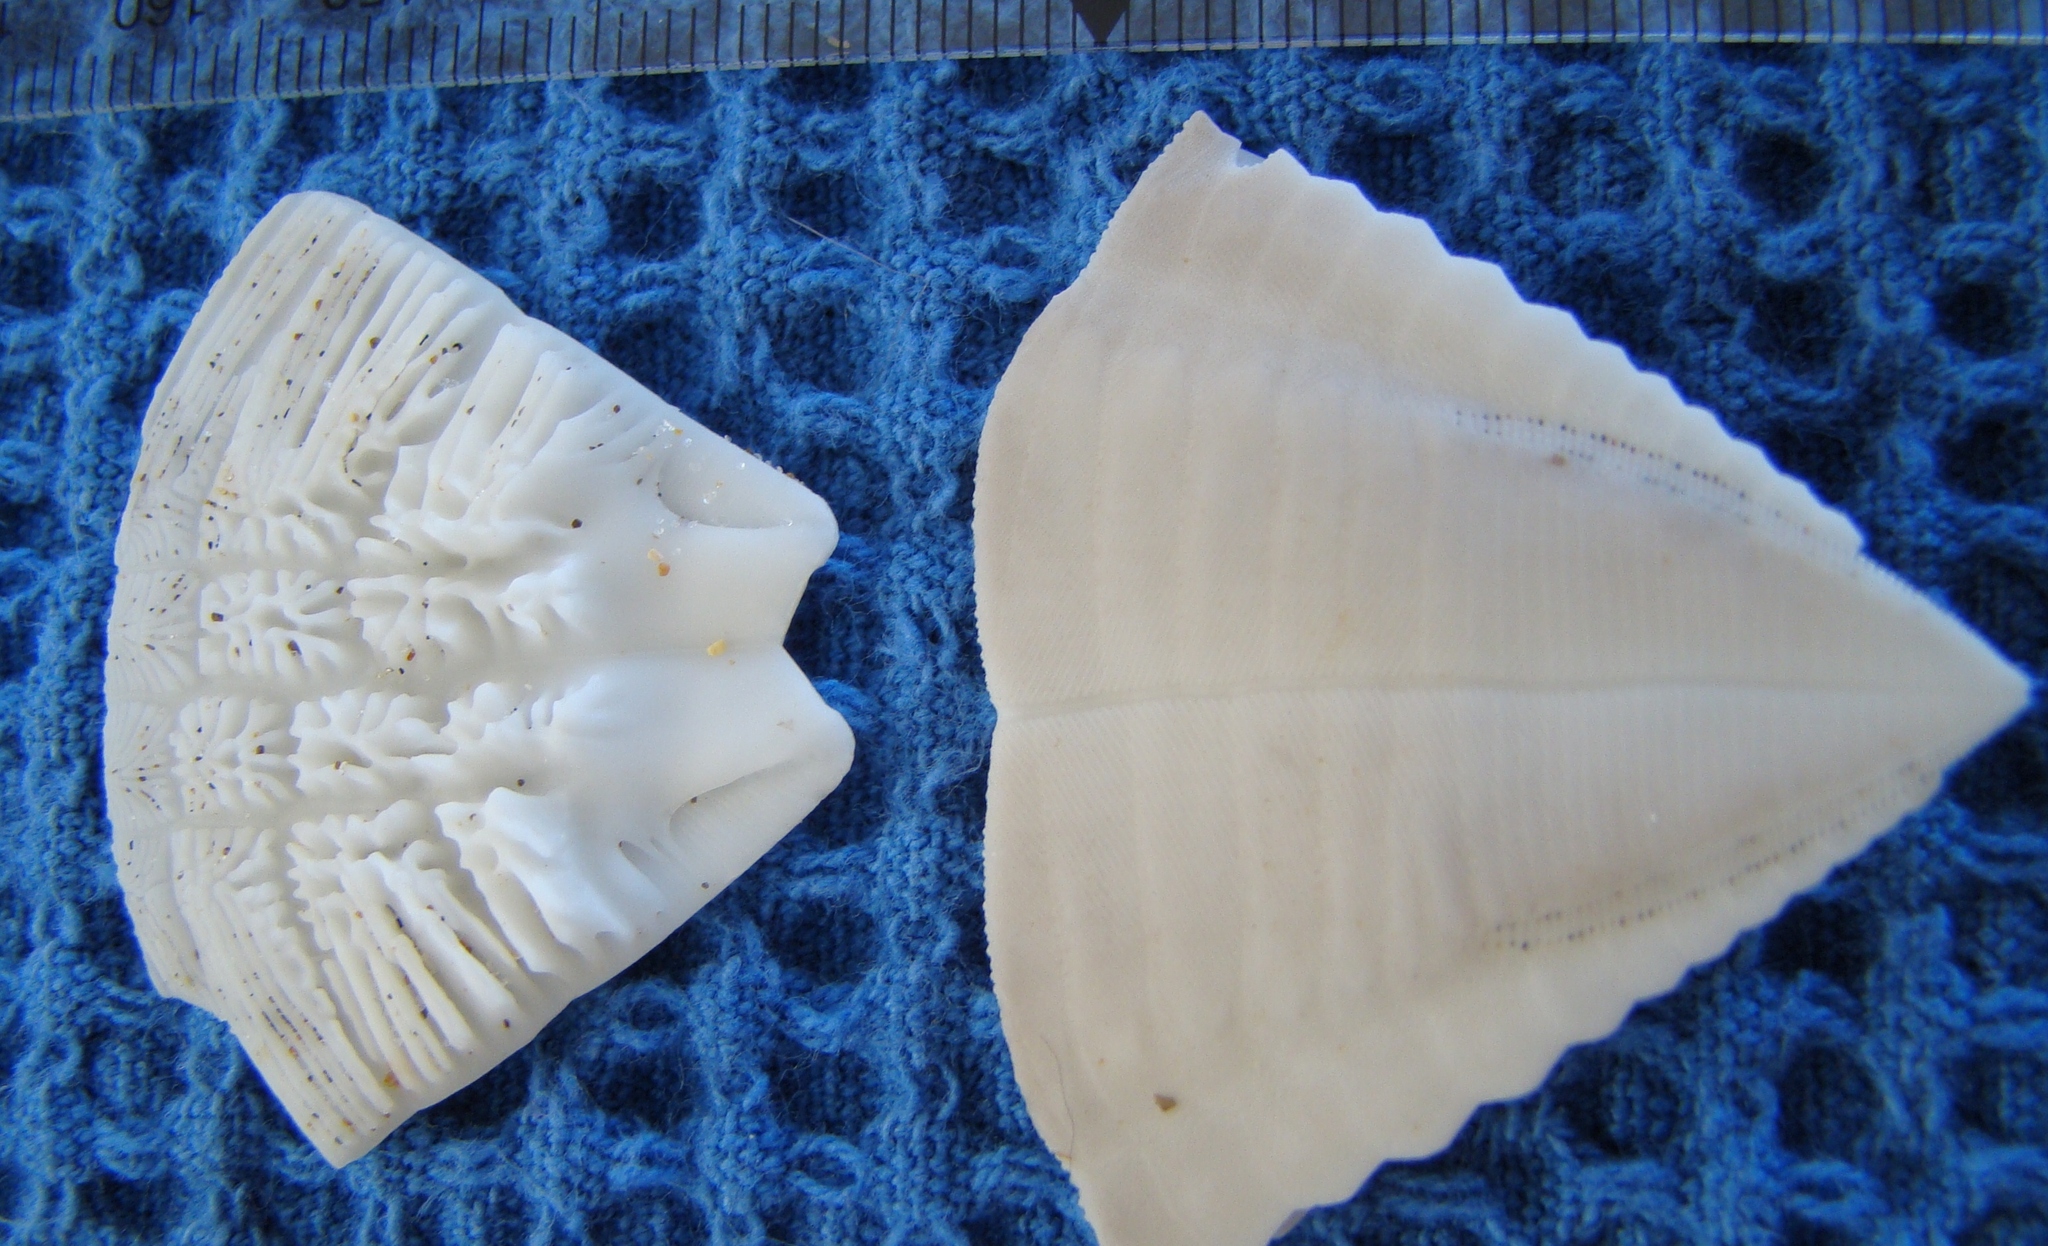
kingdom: Animalia
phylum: Echinodermata
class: Echinoidea
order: Clypeasteroida
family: Clypeasteridae
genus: Fellaster
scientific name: Fellaster zelandiae
